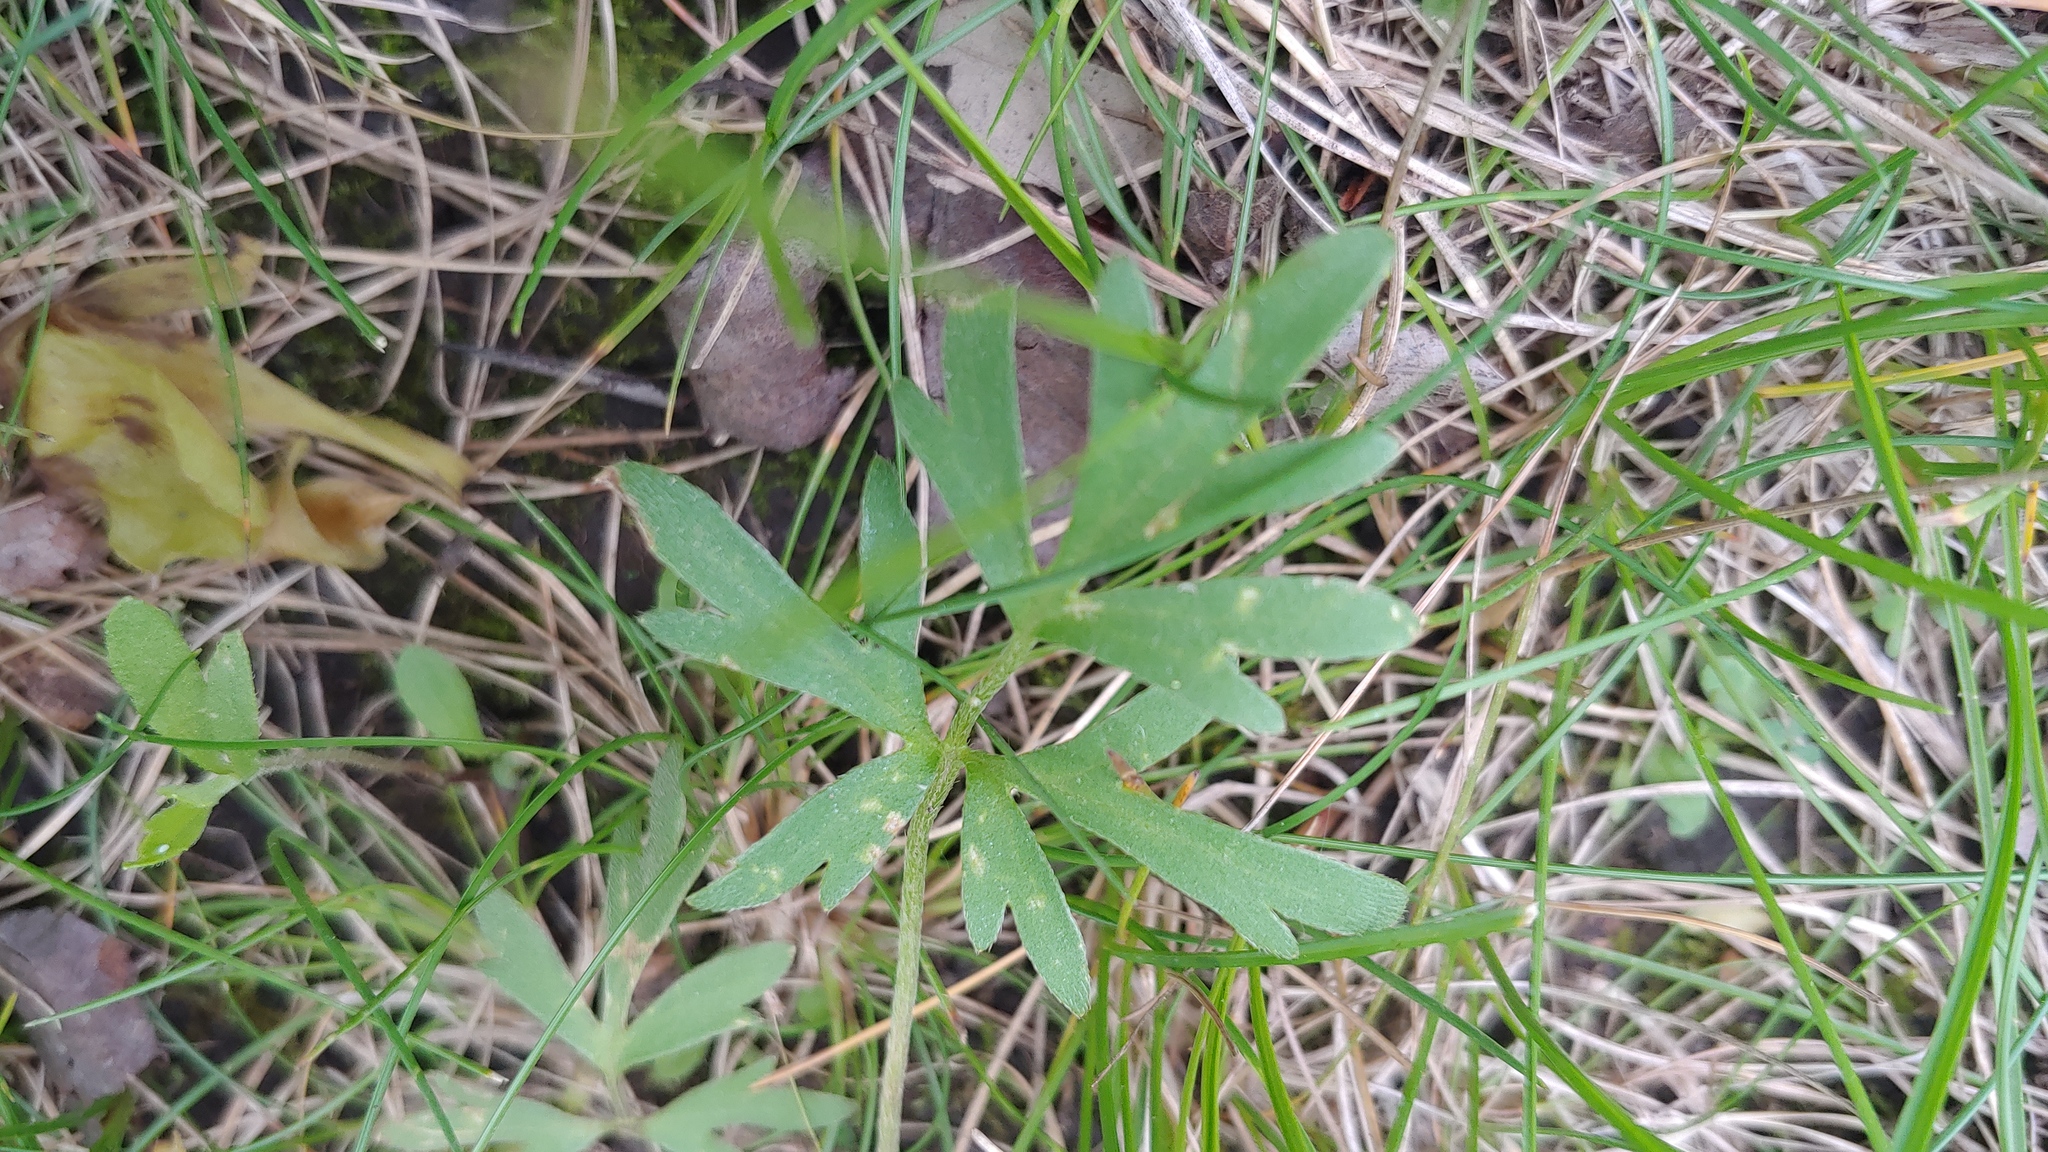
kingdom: Plantae
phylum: Tracheophyta
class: Magnoliopsida
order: Ranunculales
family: Ranunculaceae
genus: Ranunculus
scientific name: Ranunculus fascicularis
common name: Early buttercup
